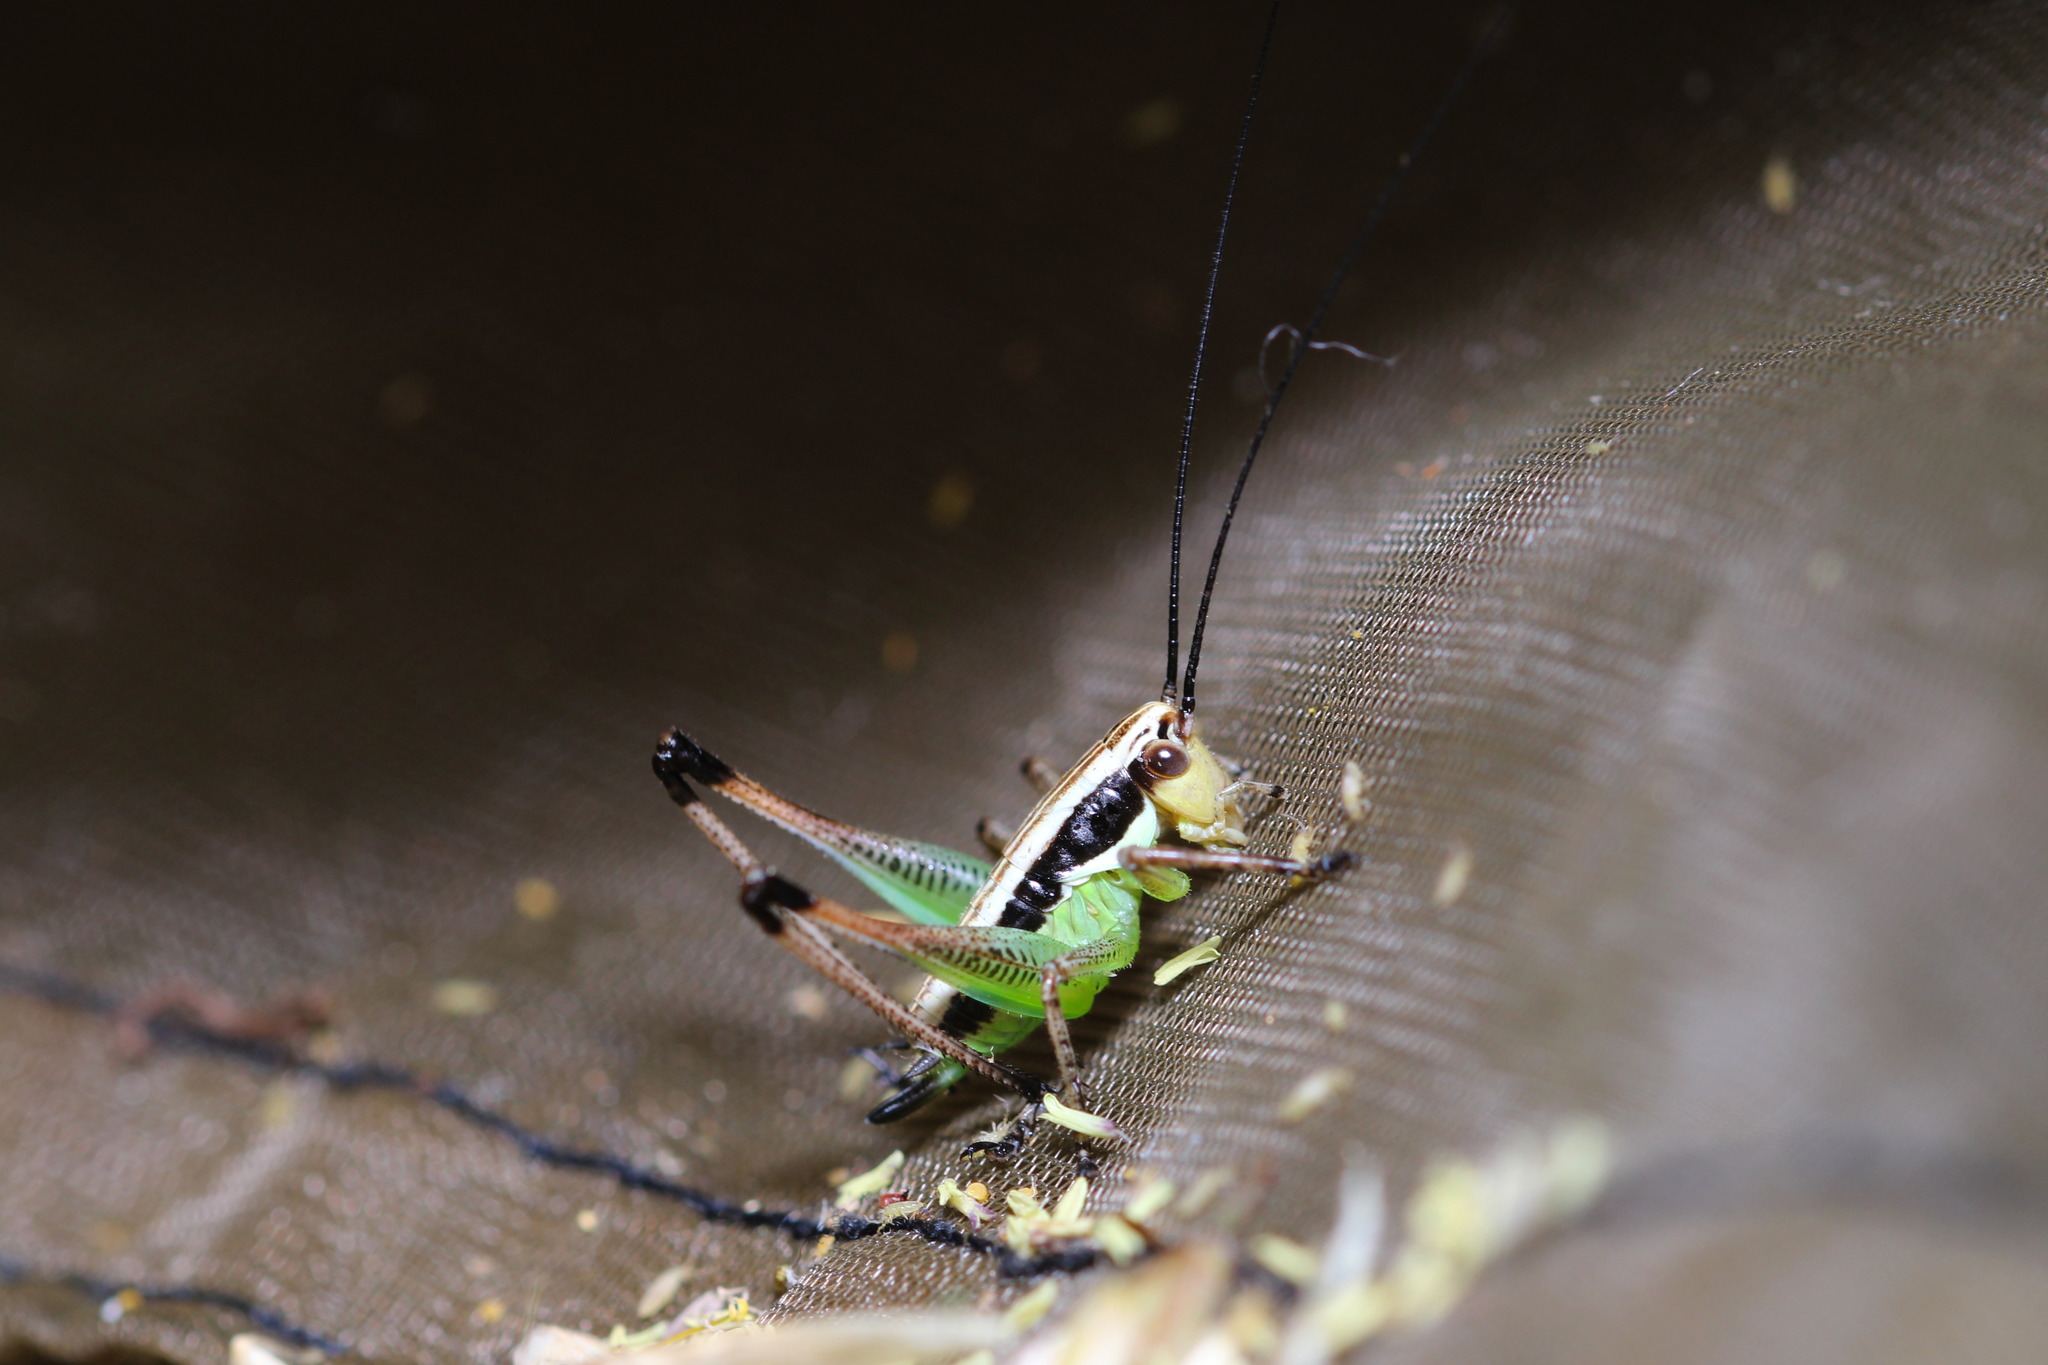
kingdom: Animalia
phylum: Arthropoda
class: Insecta
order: Orthoptera
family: Tettigoniidae
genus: Pachytrachis
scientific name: Pachytrachis gracilis
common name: Graceful bush-cricket
